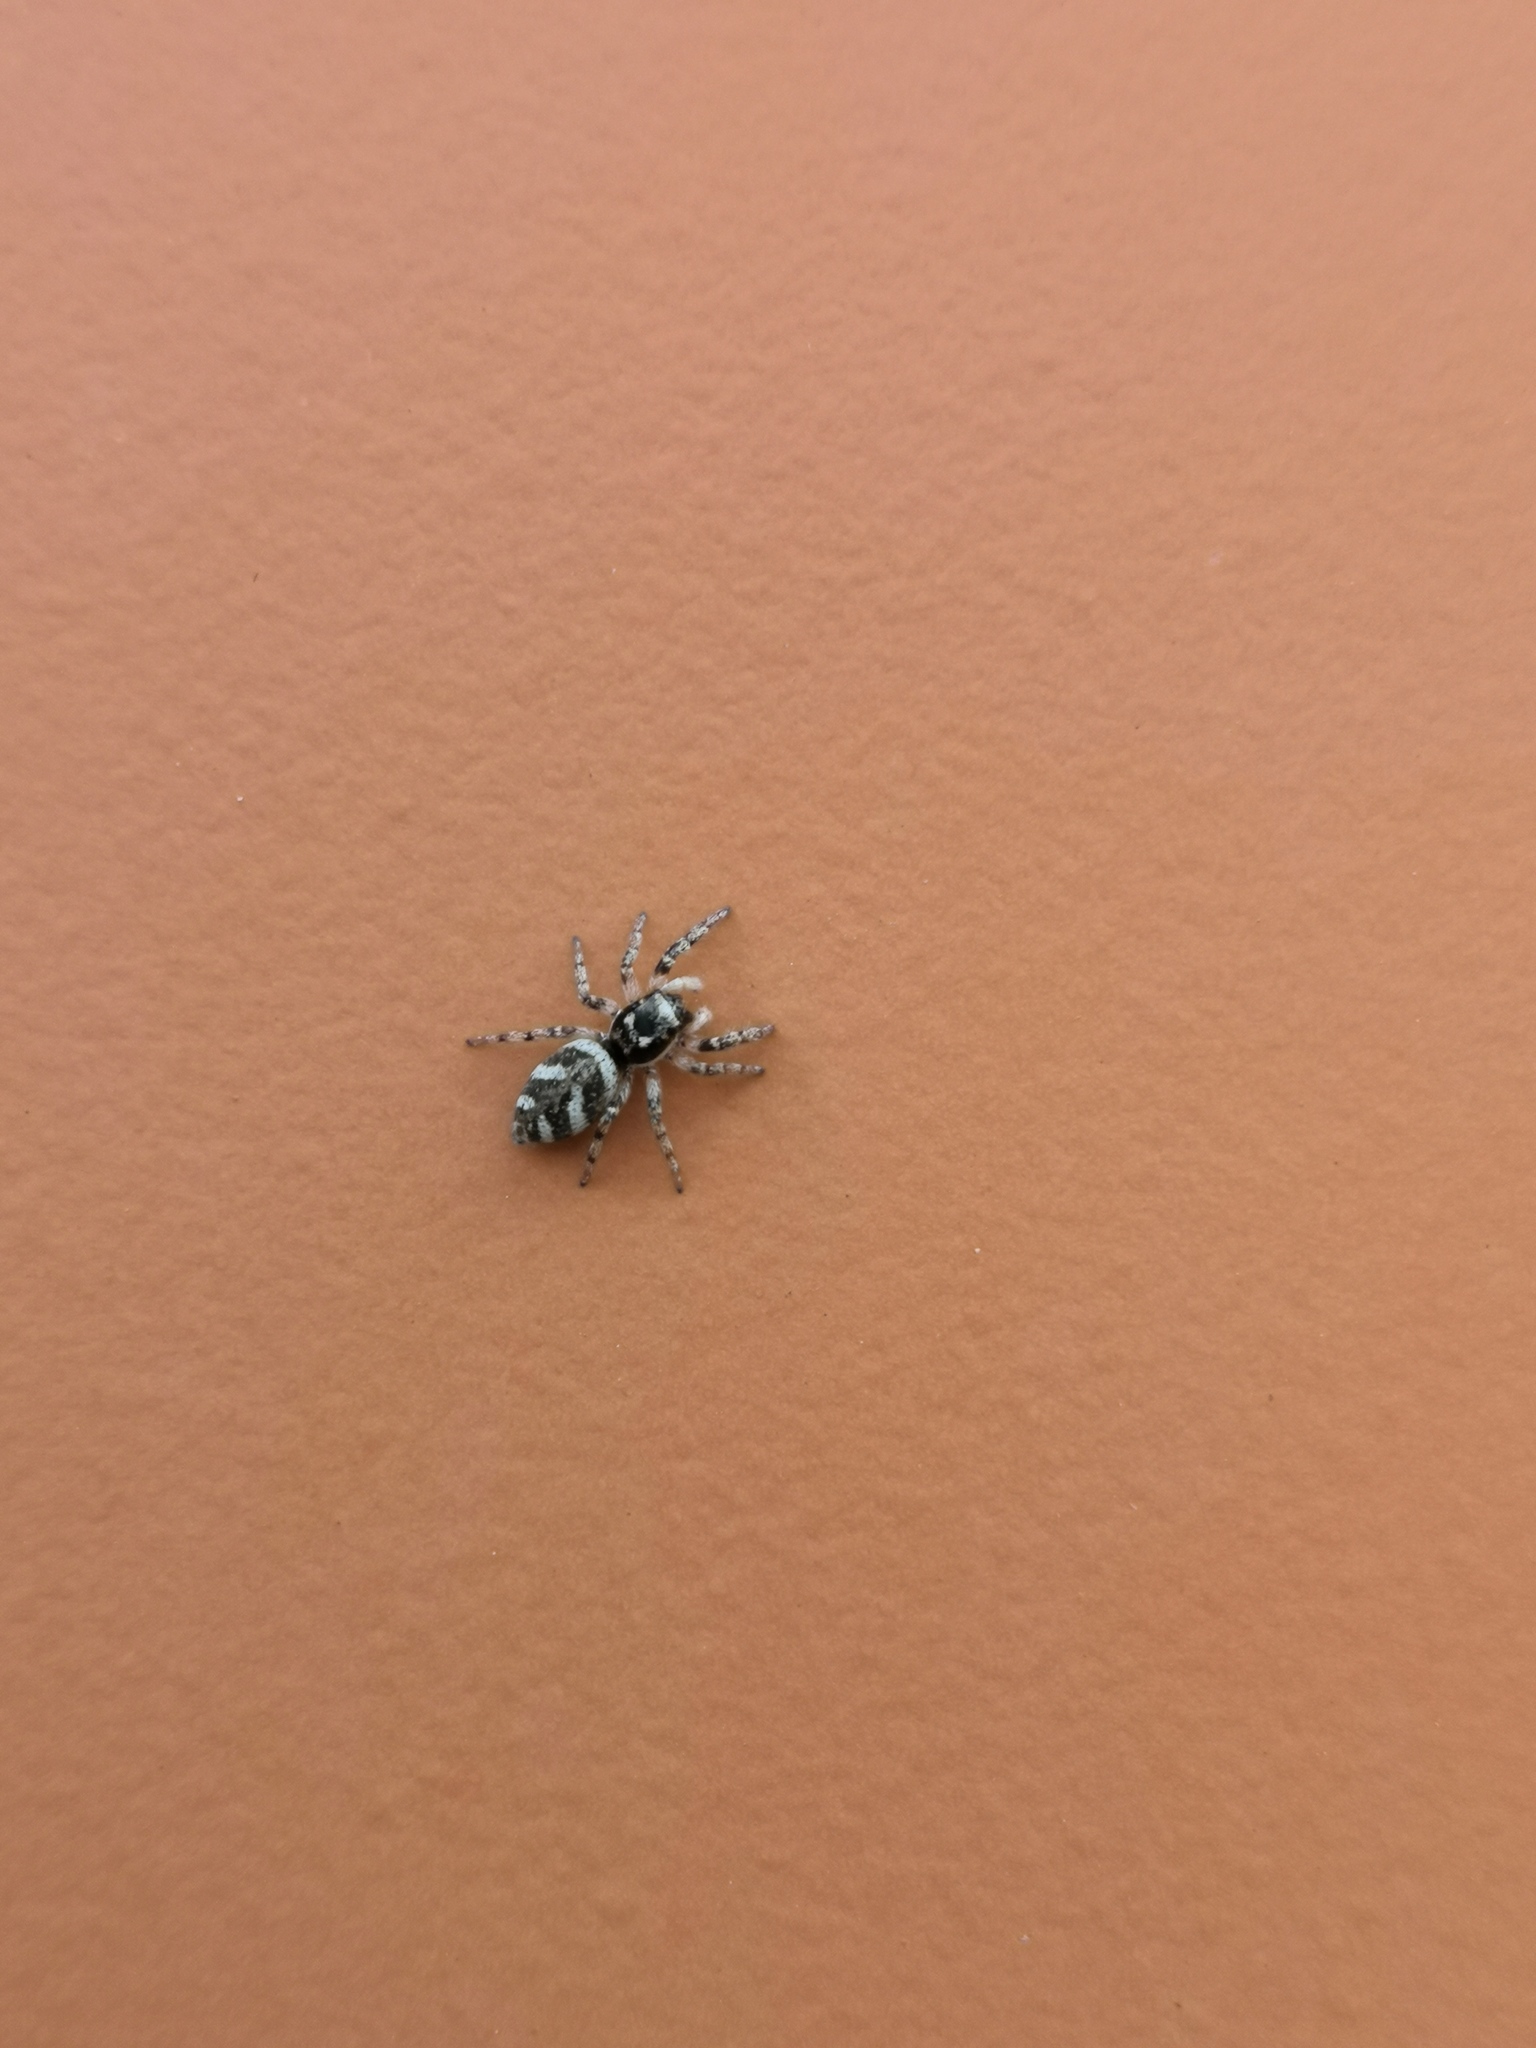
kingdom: Animalia
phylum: Arthropoda
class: Arachnida
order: Araneae
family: Salticidae
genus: Salticus
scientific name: Salticus scenicus
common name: Zebra jumper
